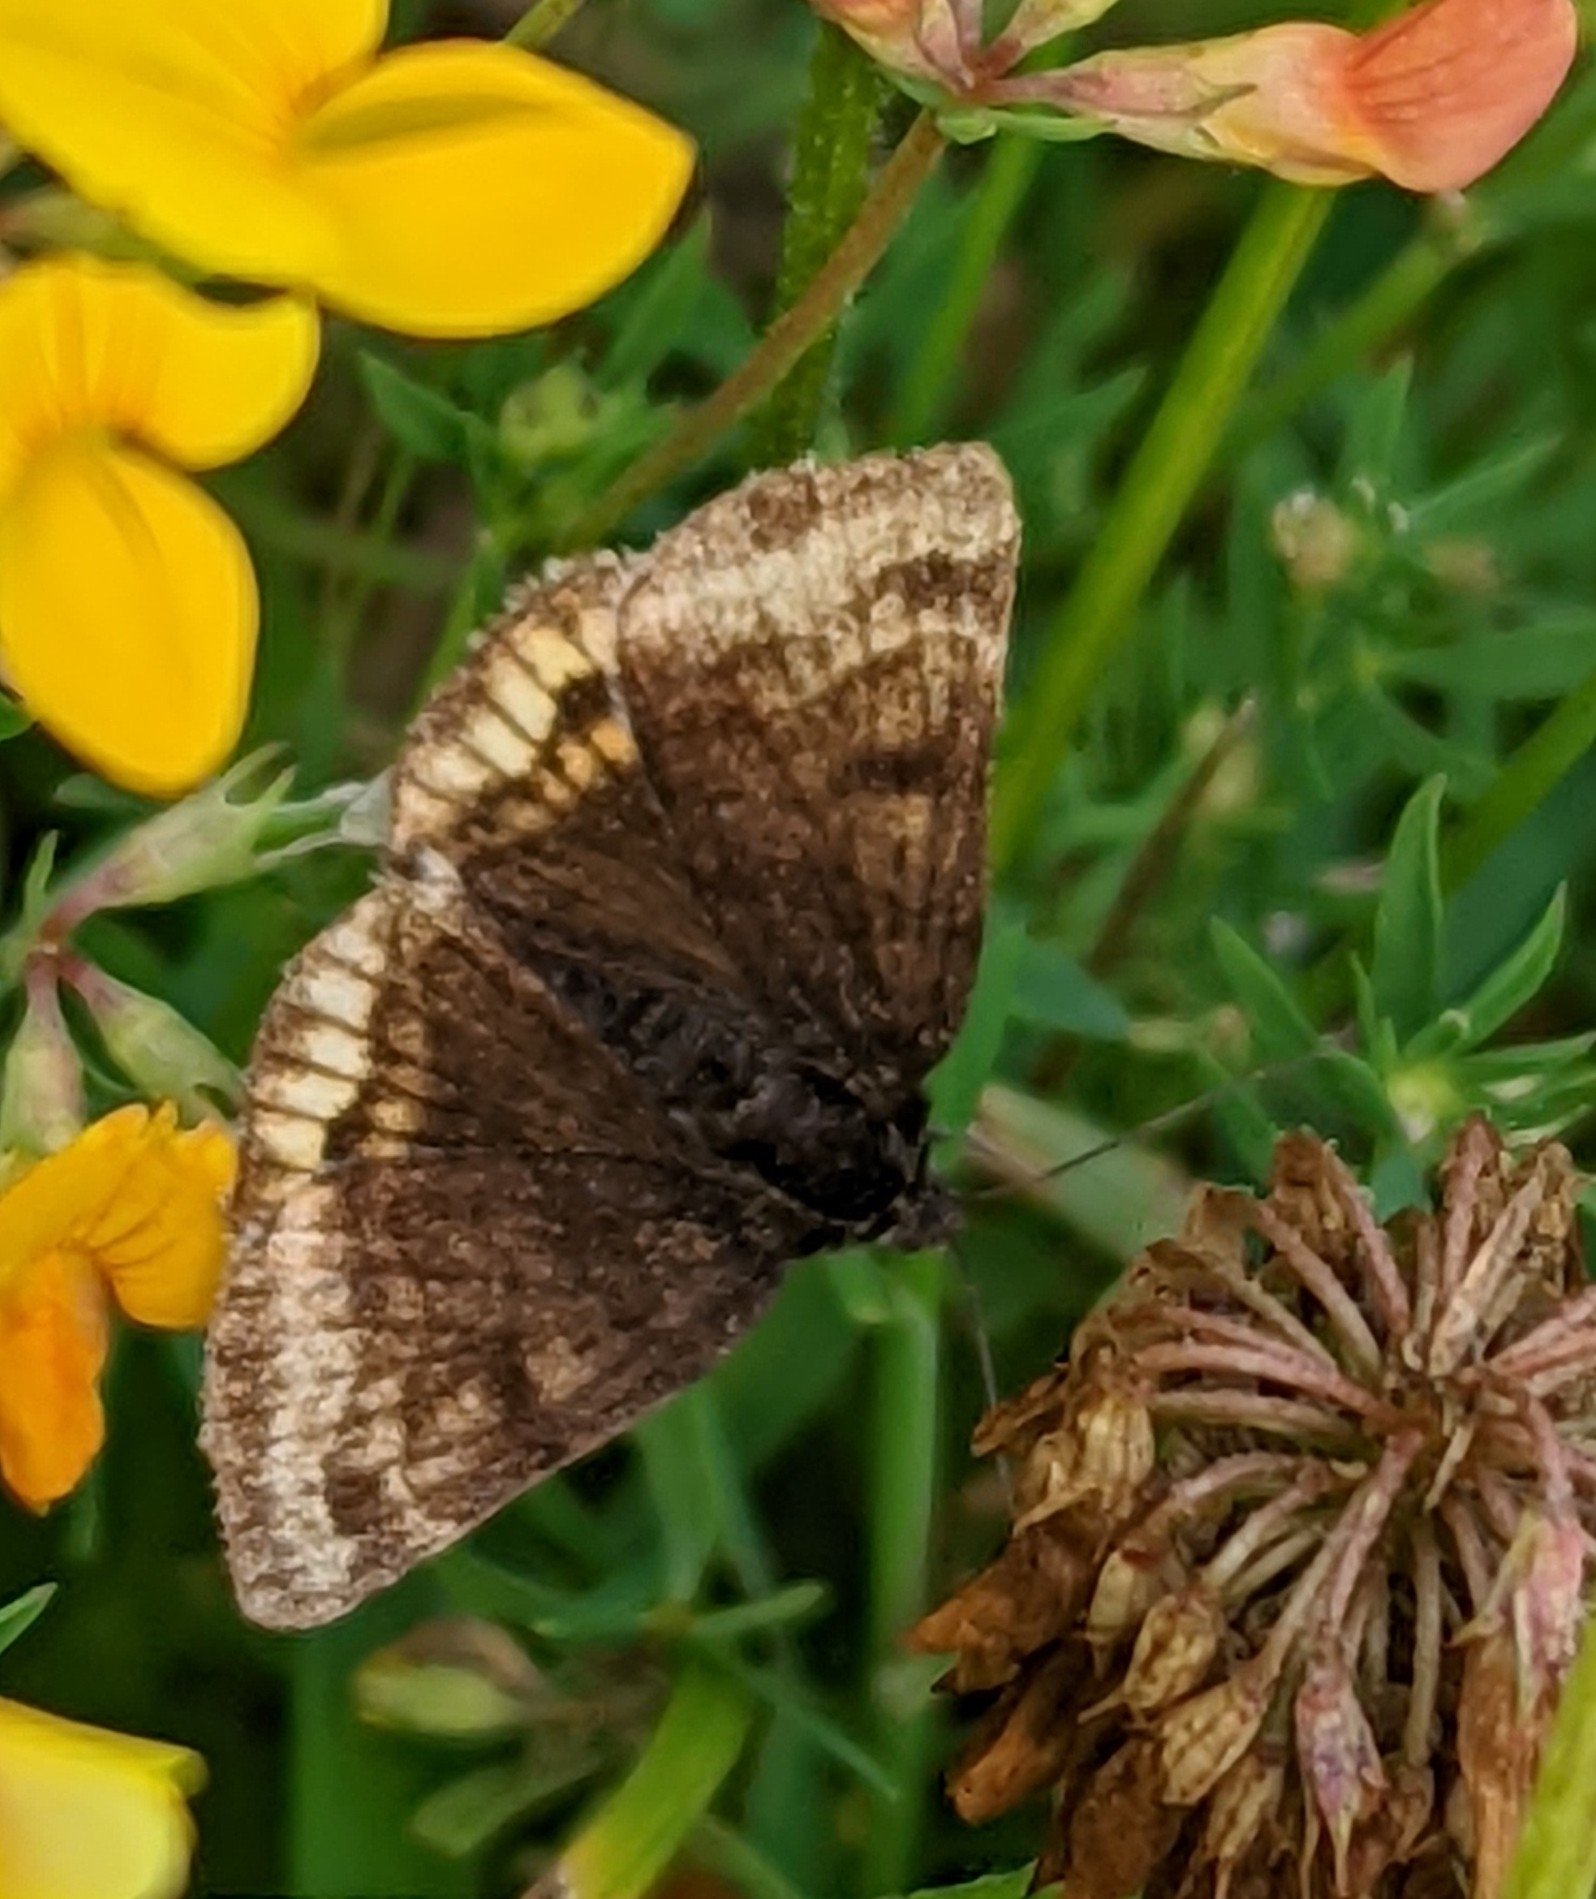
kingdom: Animalia
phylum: Arthropoda
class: Insecta
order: Lepidoptera
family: Erebidae
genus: Euclidia
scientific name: Euclidia glyphica
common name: Burnet companion
